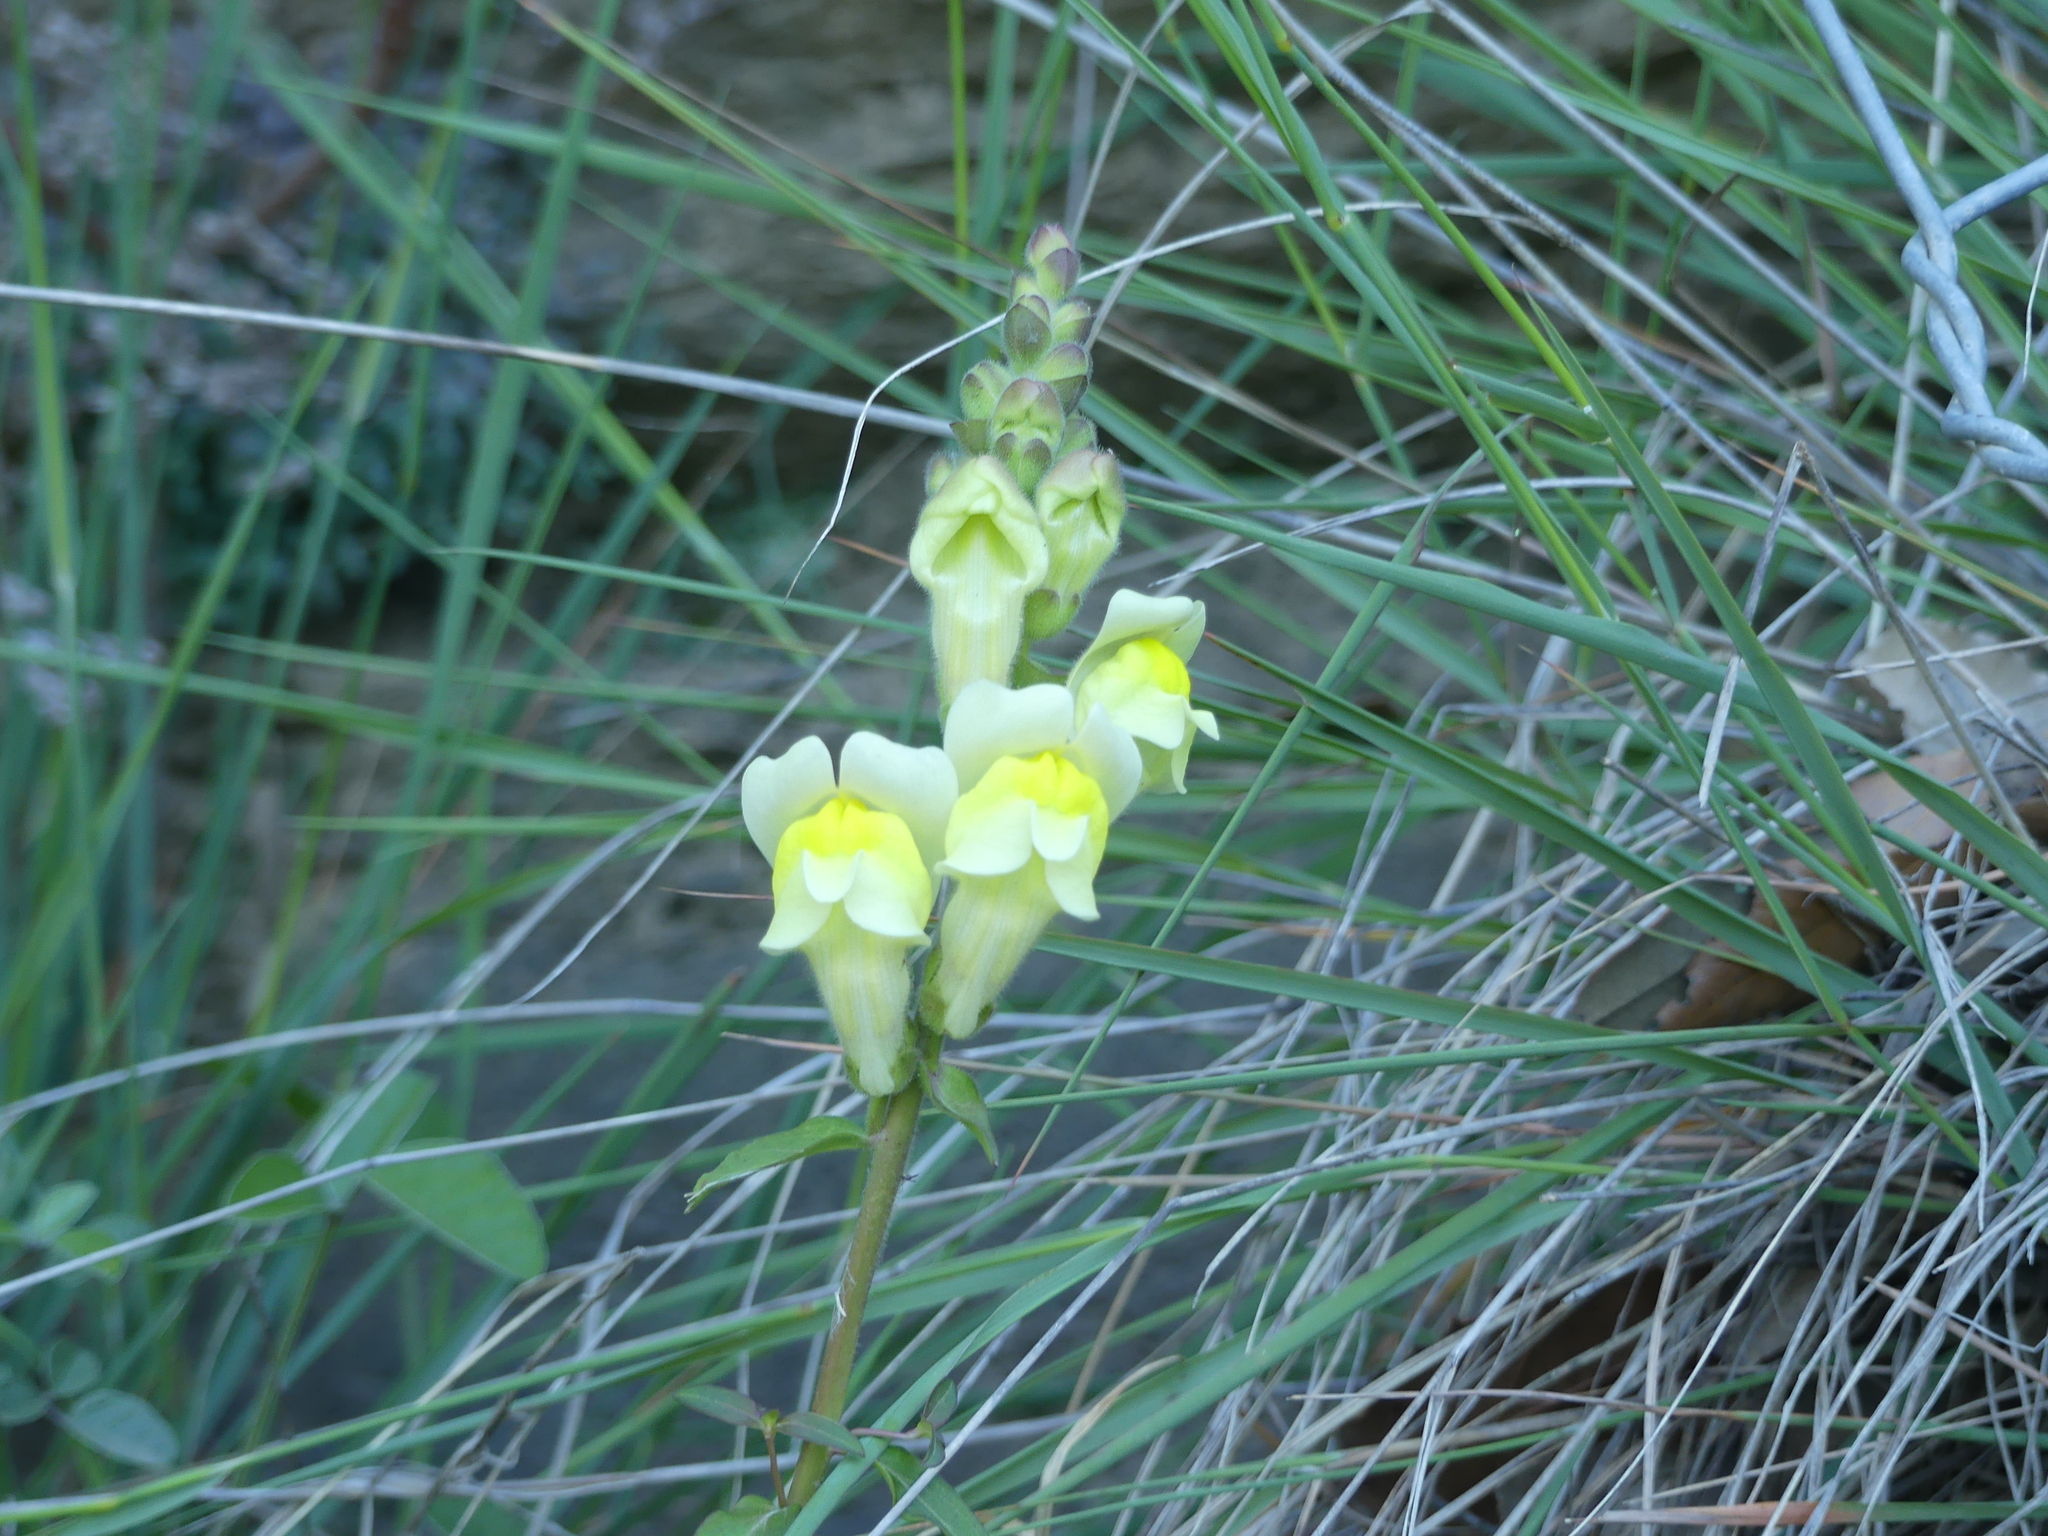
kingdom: Plantae
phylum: Tracheophyta
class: Magnoliopsida
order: Lamiales
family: Plantaginaceae
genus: Linaria
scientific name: Linaria vulgaris
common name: Butter and eggs
